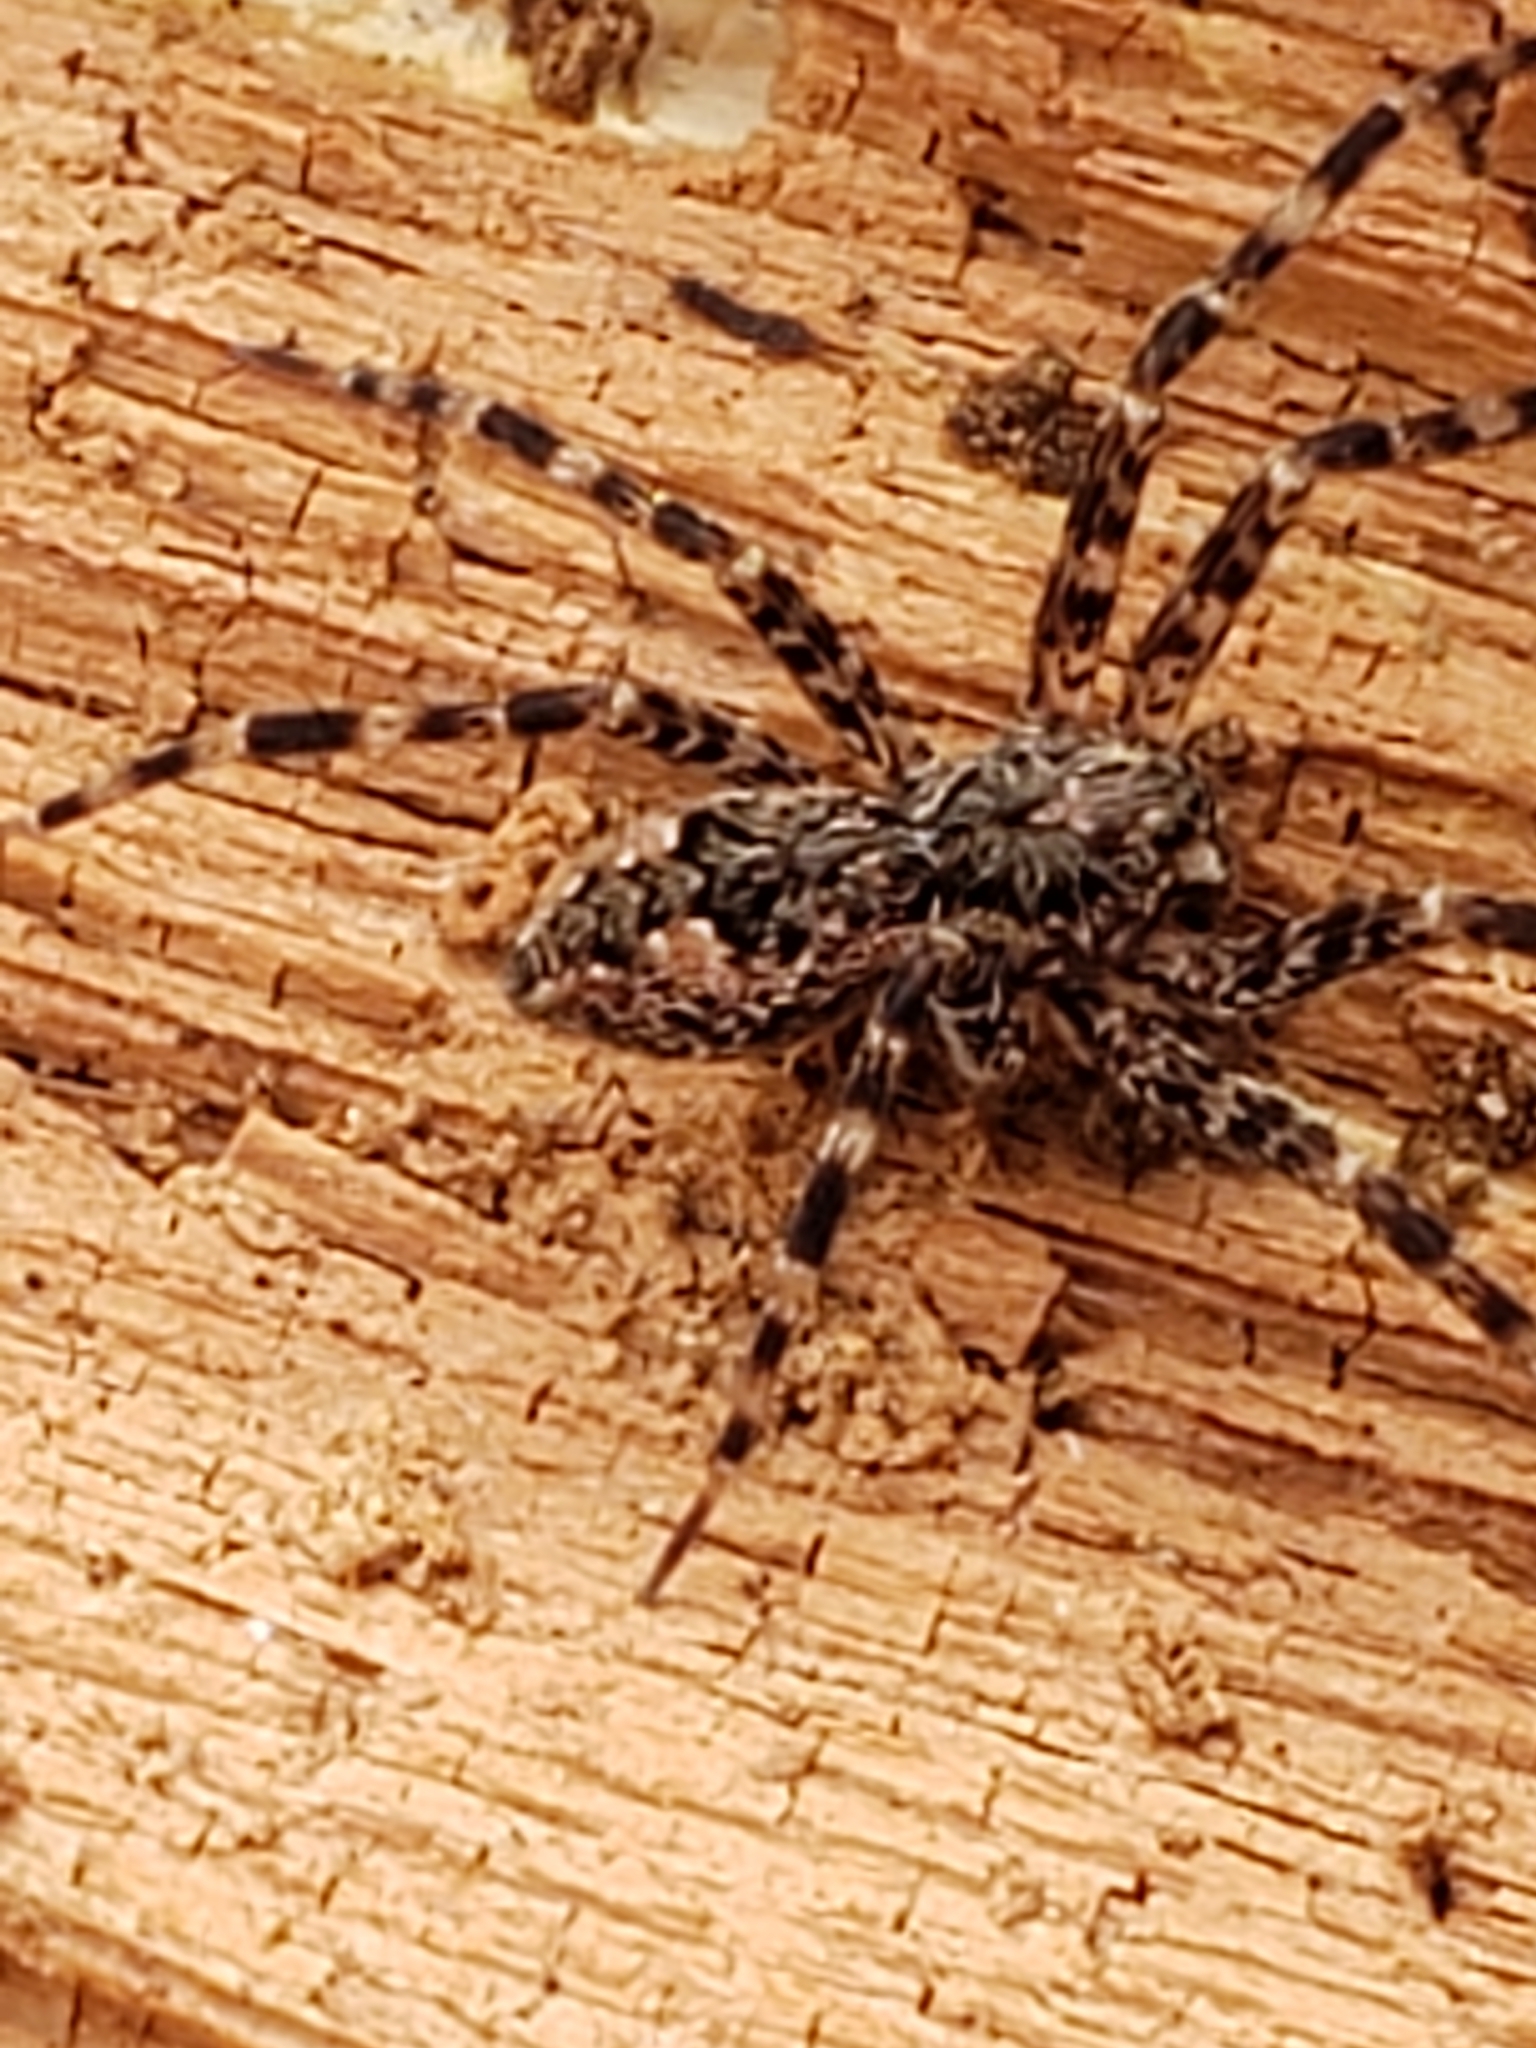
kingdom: Animalia
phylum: Arthropoda
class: Arachnida
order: Araneae
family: Pisauridae
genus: Dolomedes
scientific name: Dolomedes tenebrosus
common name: Dark fishing spider
